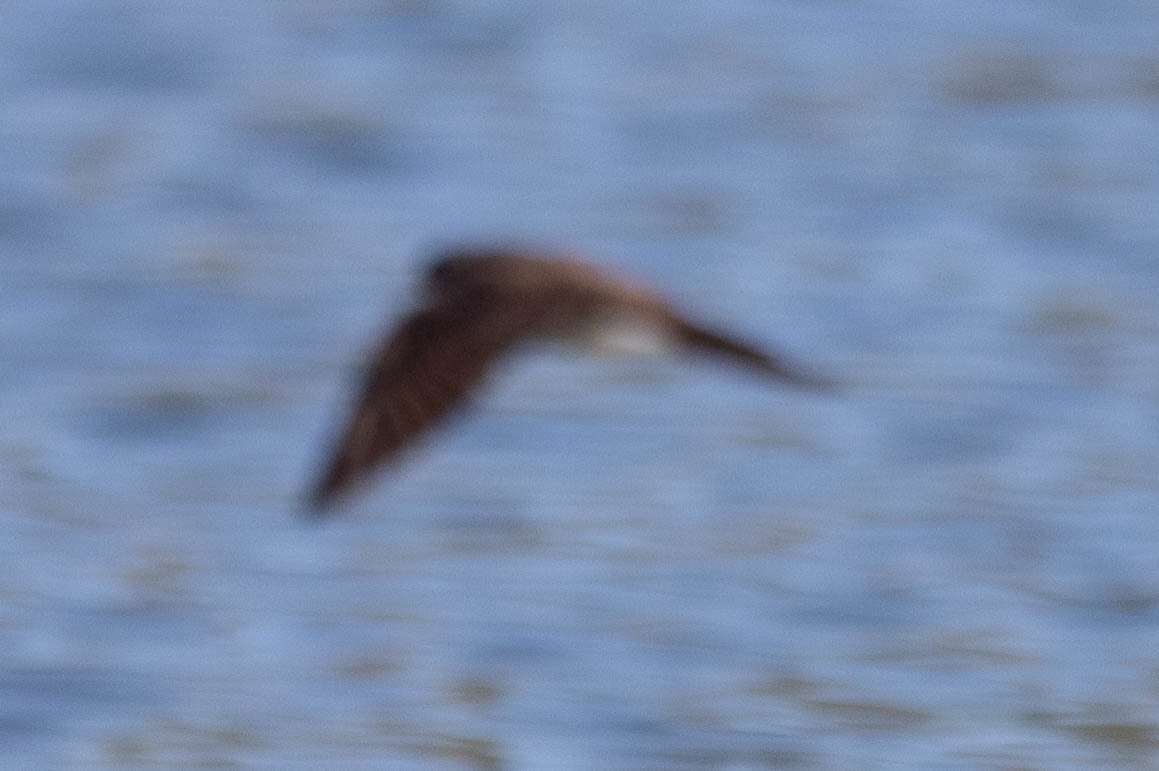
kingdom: Animalia
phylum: Chordata
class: Aves
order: Passeriformes
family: Hirundinidae
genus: Stelgidopteryx
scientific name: Stelgidopteryx serripennis
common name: Northern rough-winged swallow
